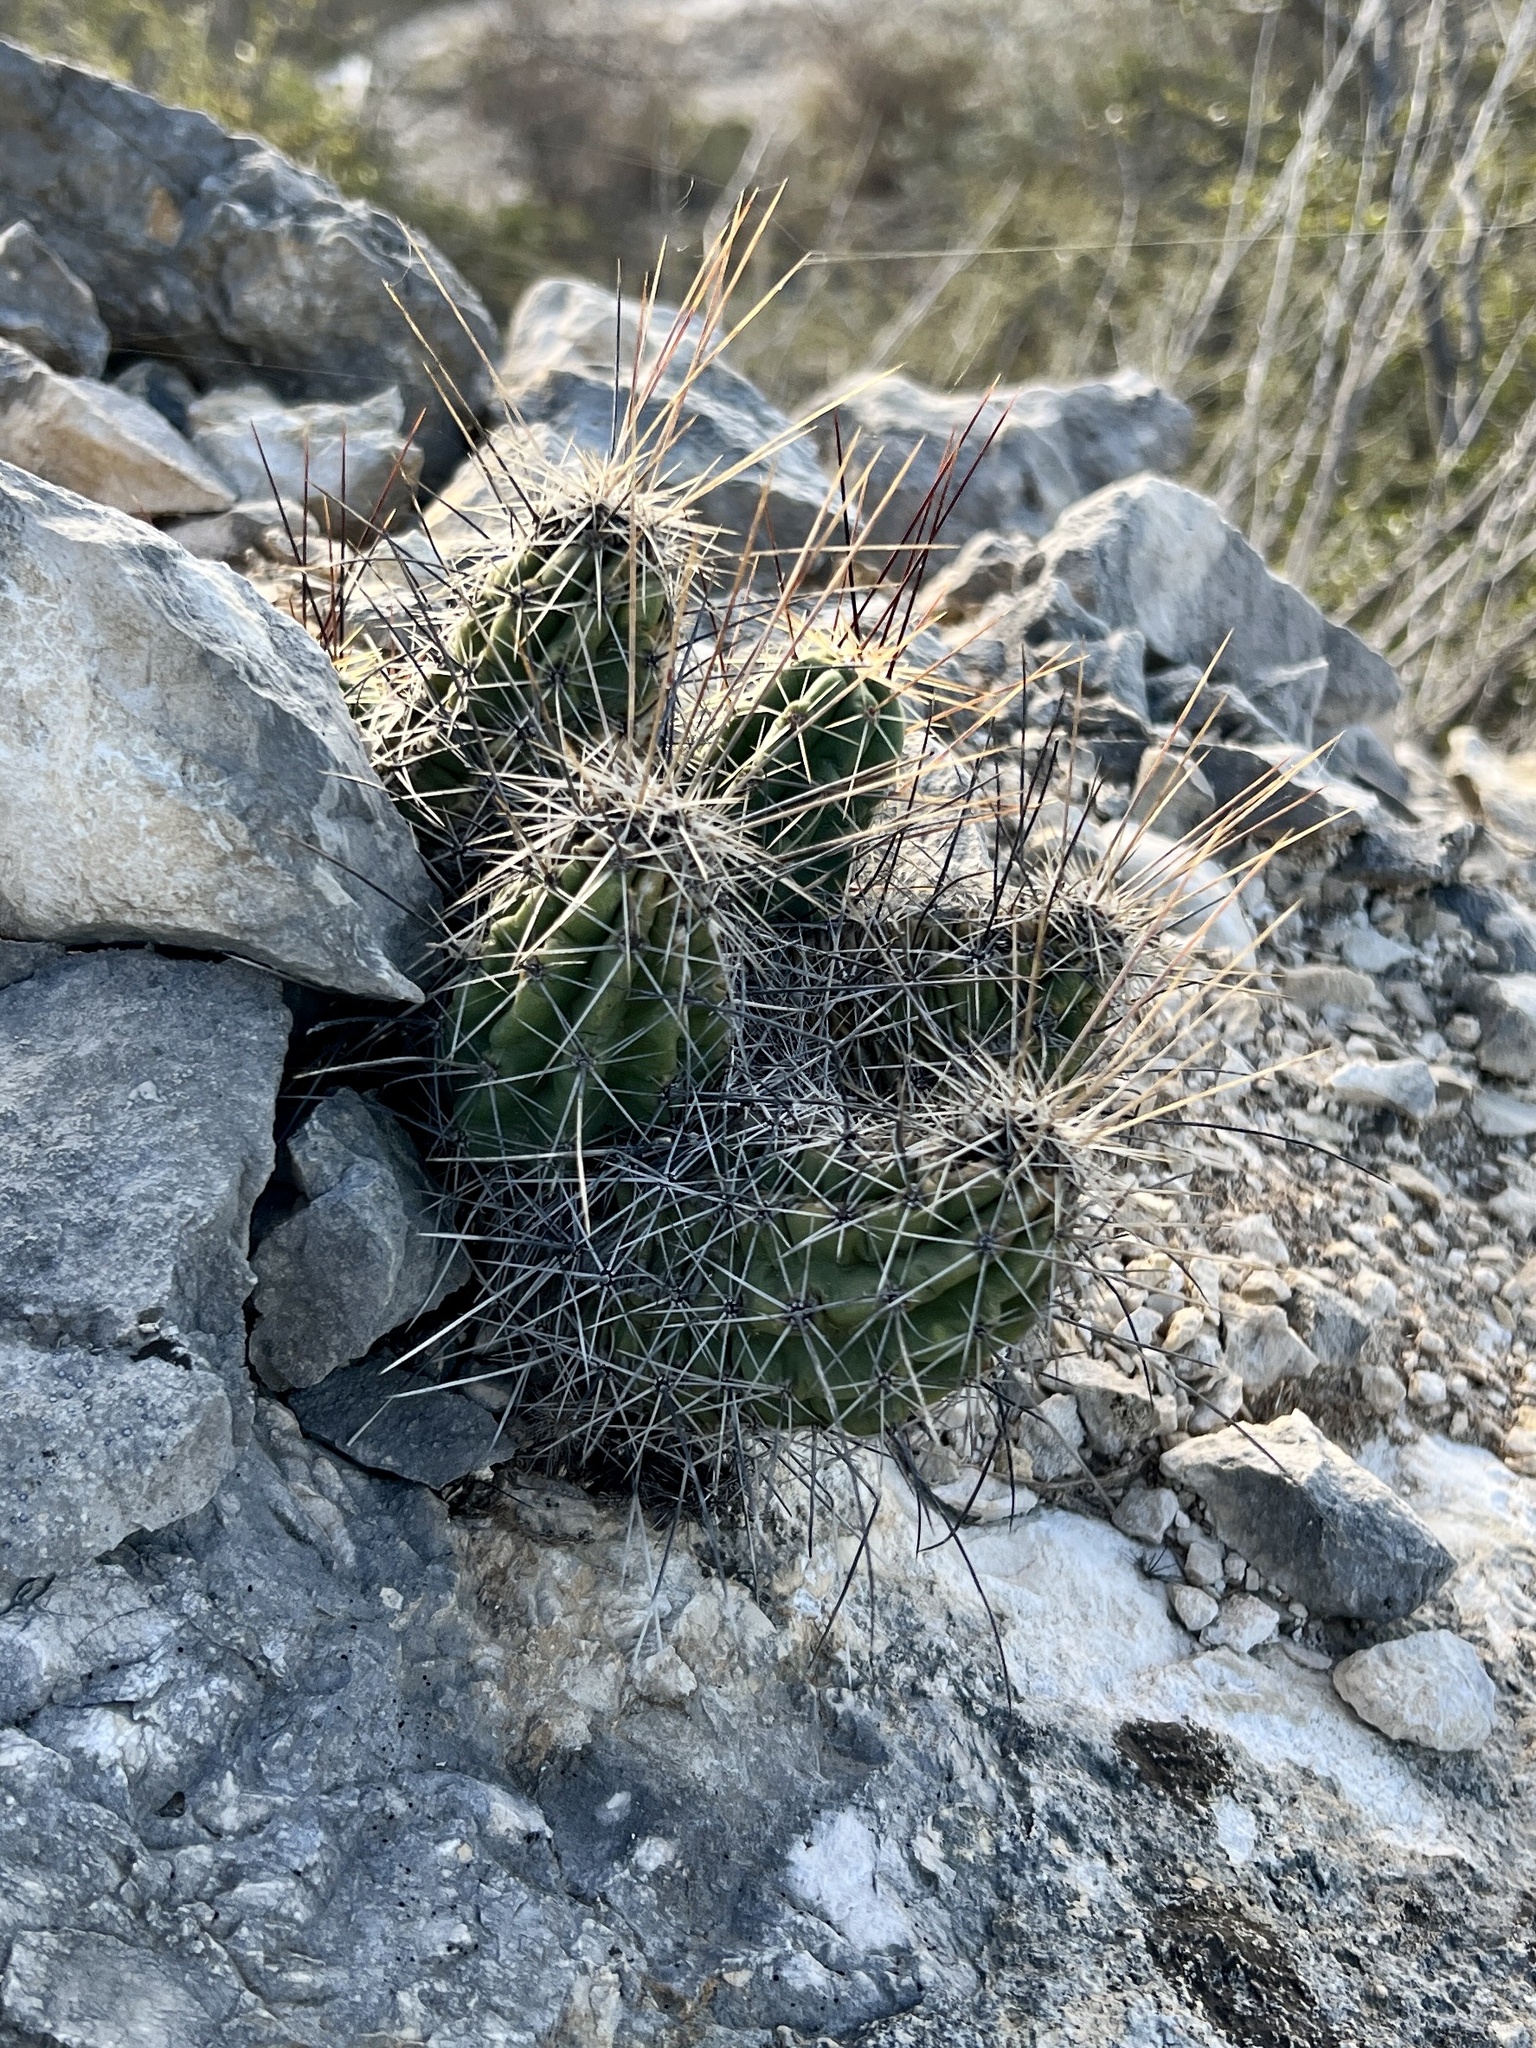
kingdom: Plantae
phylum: Tracheophyta
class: Magnoliopsida
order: Caryophyllales
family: Cactaceae
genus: Echinocereus
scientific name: Echinocereus enneacanthus
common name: Pitaya
